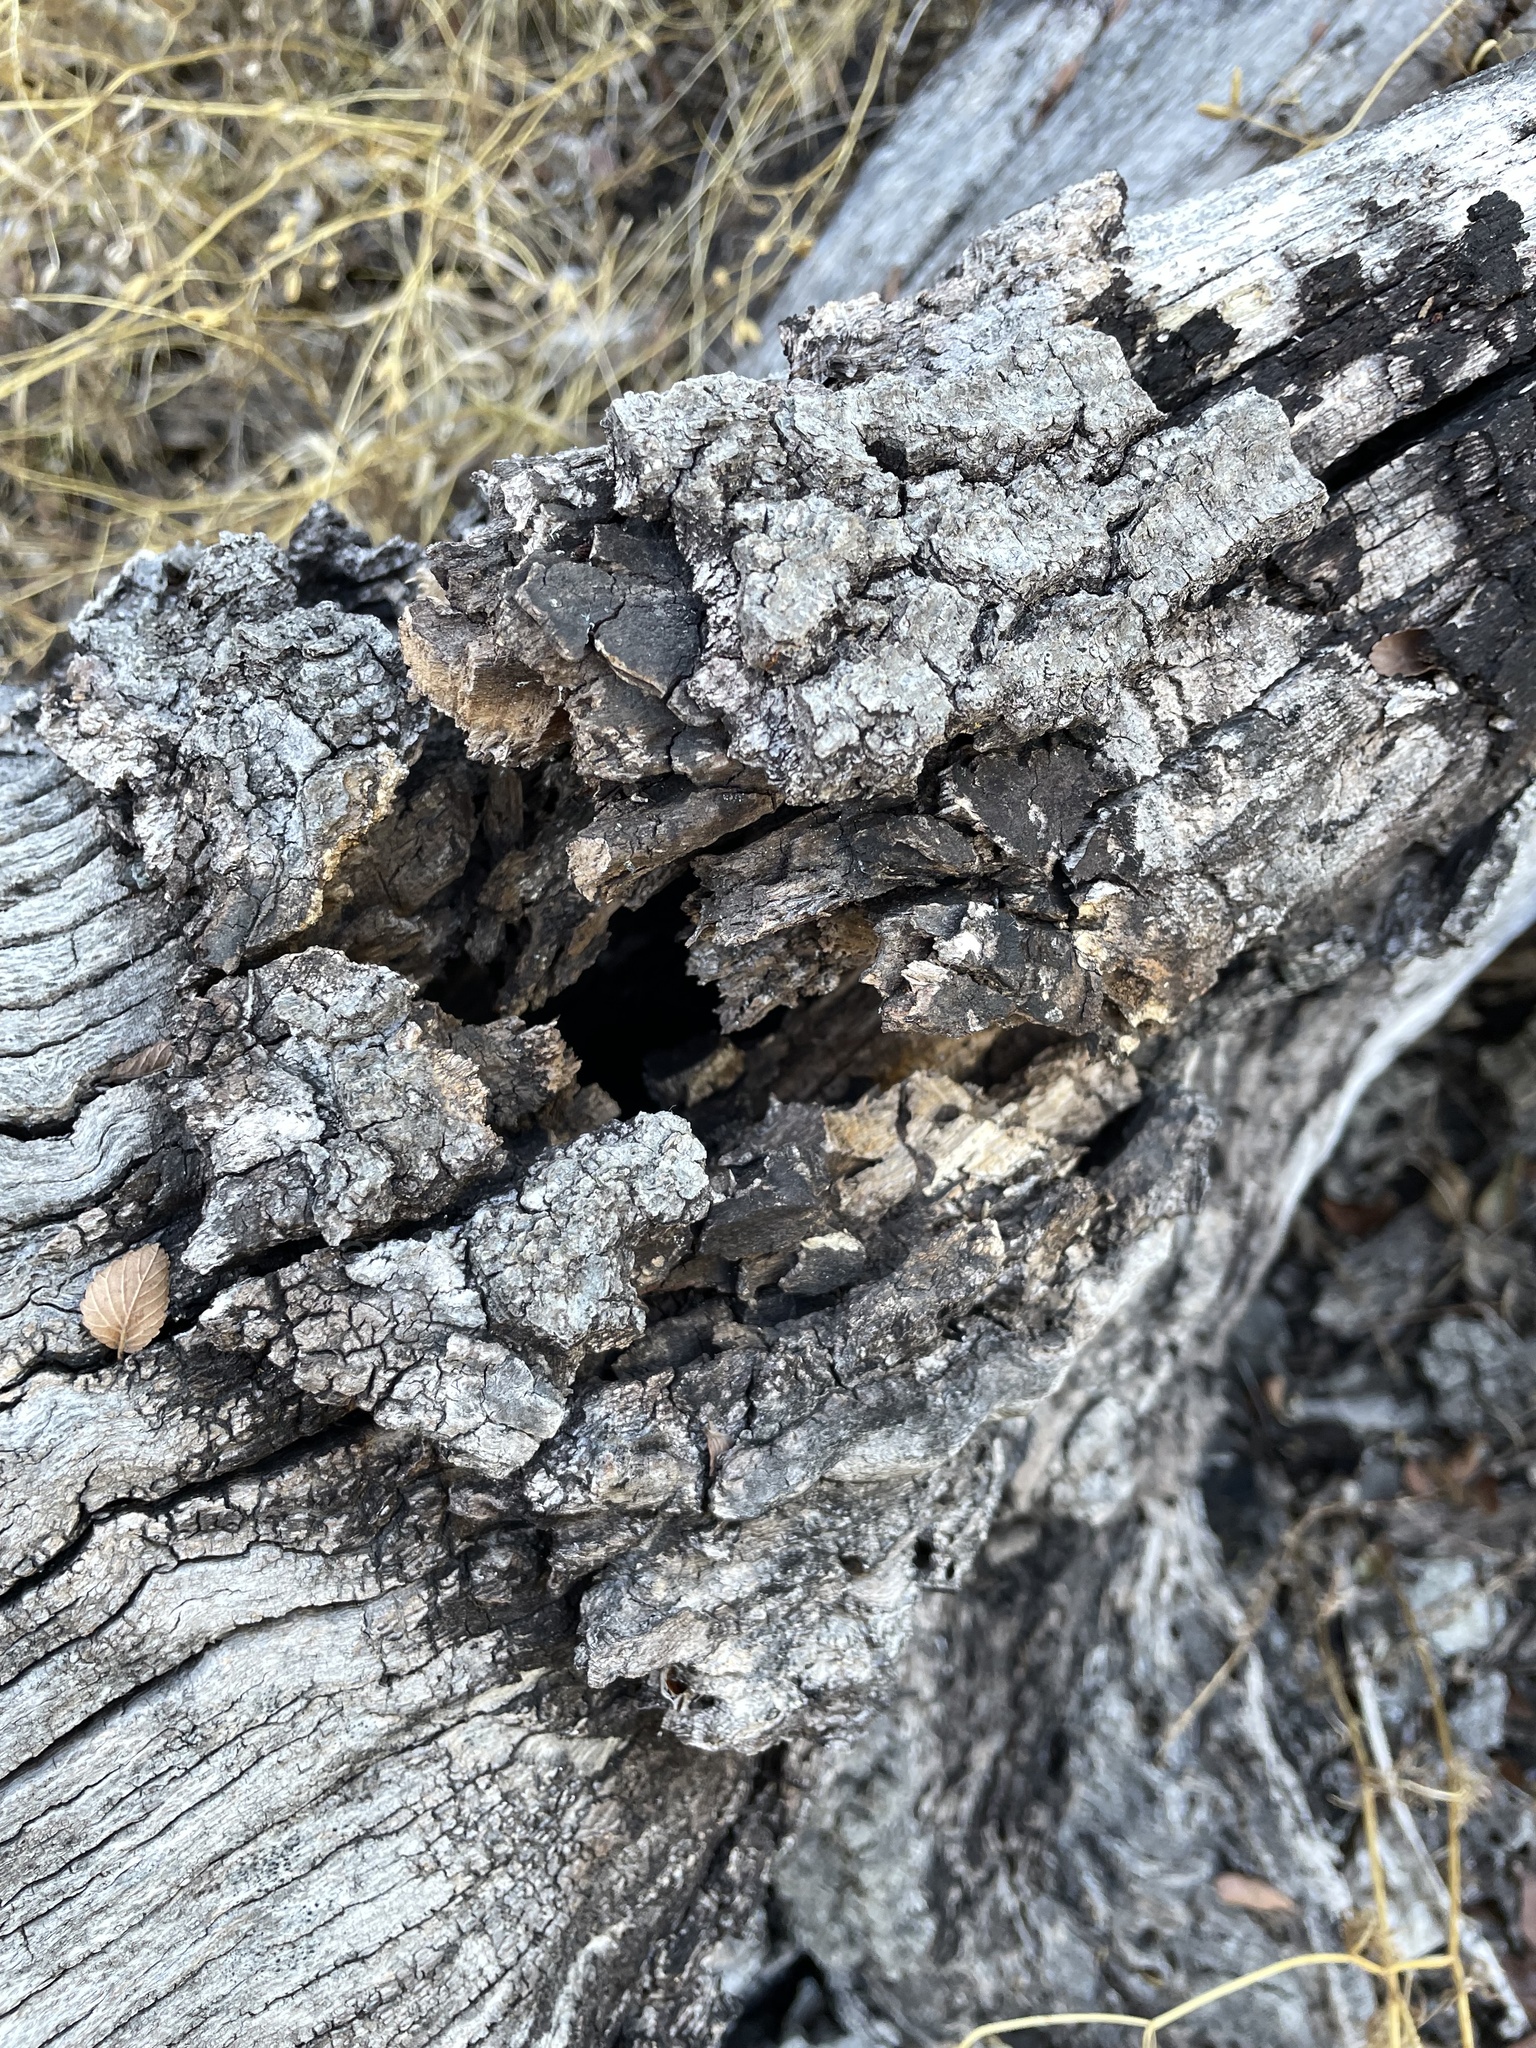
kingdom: Plantae
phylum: Tracheophyta
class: Magnoliopsida
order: Fagales
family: Fagaceae
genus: Quercus
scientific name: Quercus buckleyi
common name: Buckley oak
